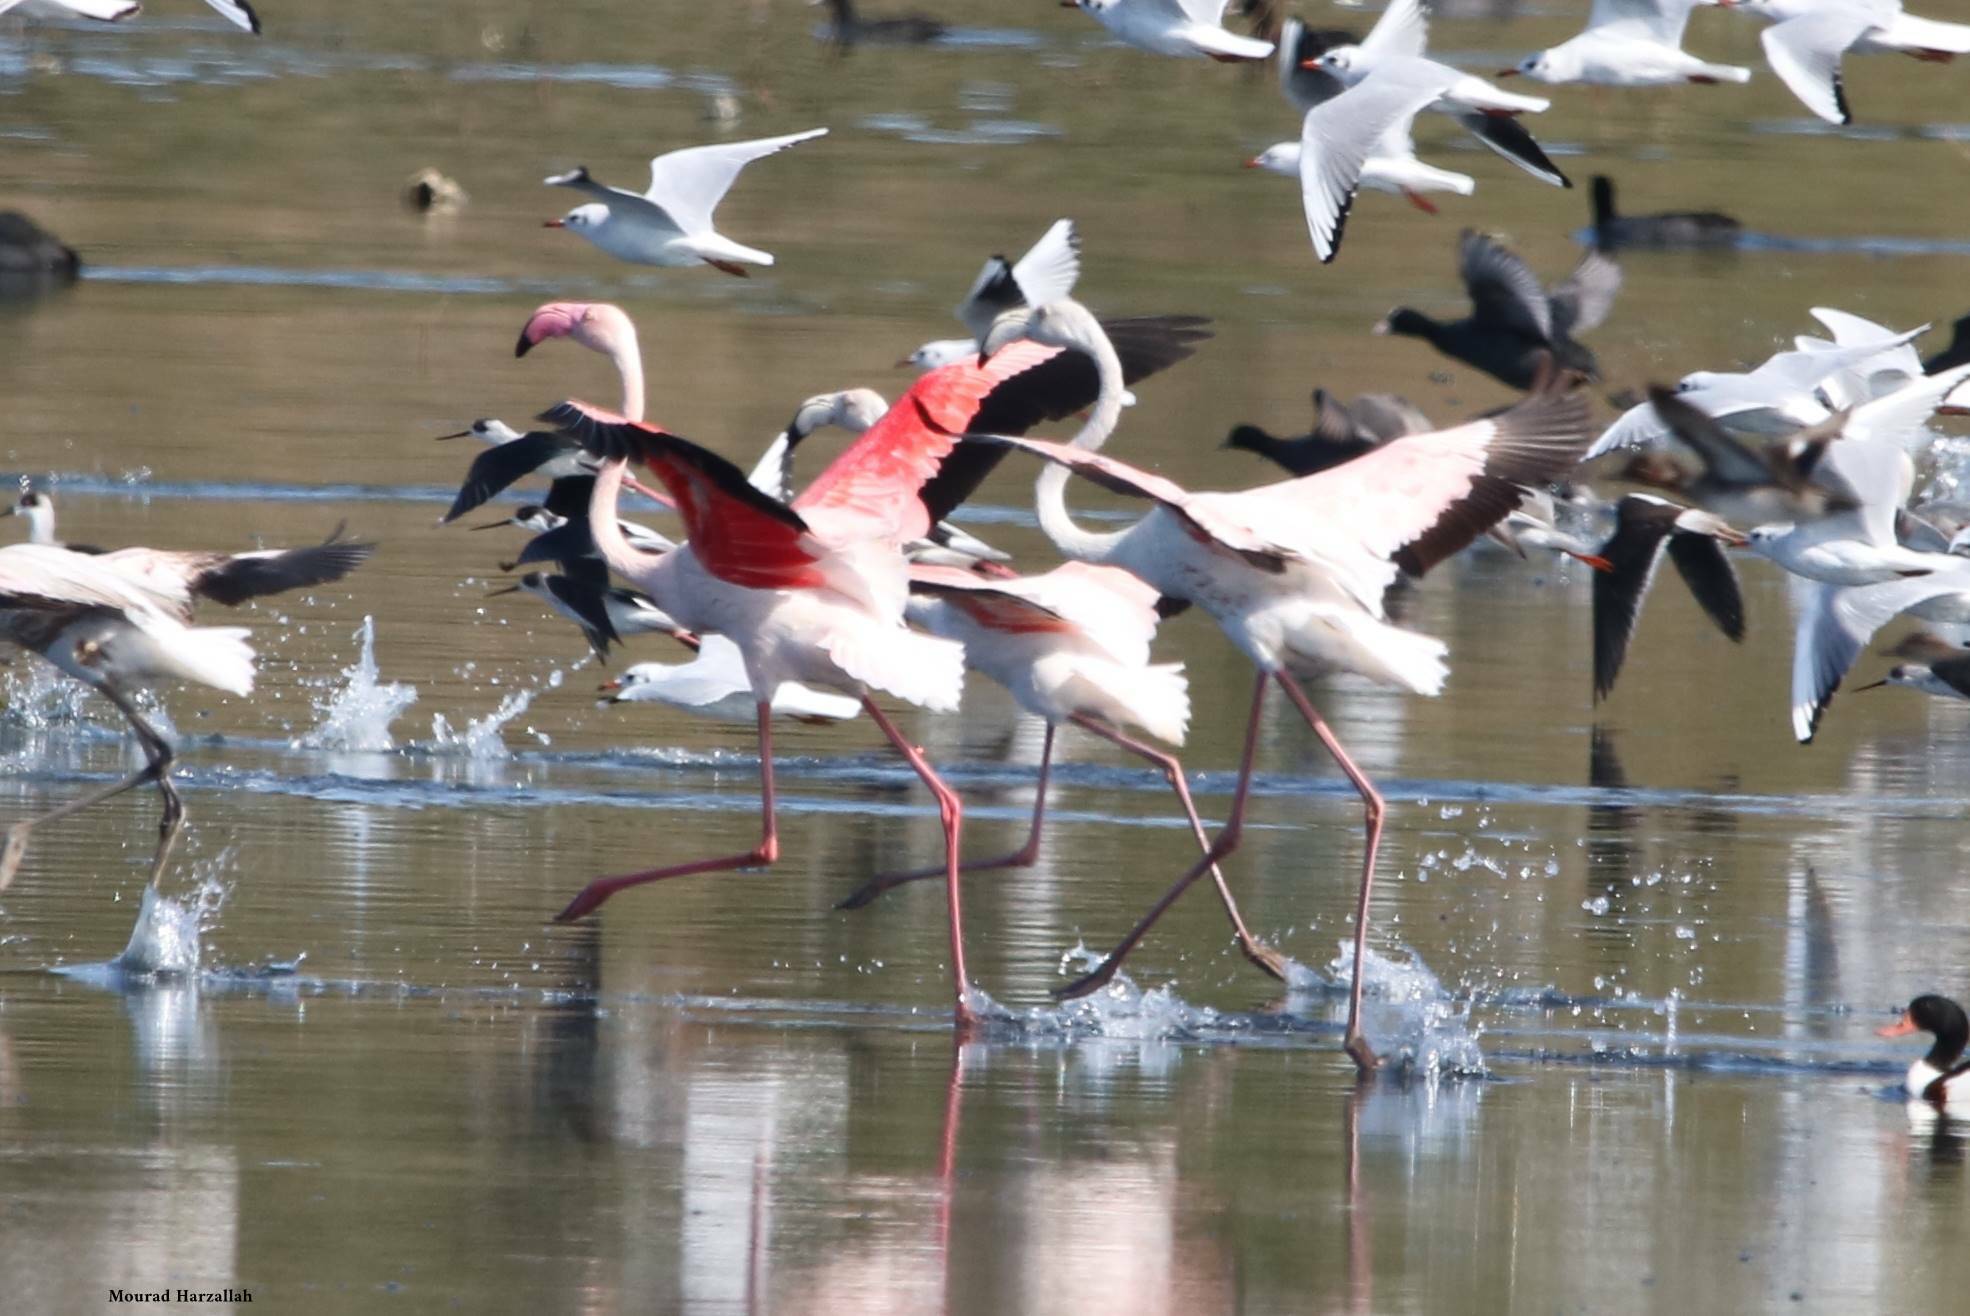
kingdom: Animalia
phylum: Chordata
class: Aves
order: Phoenicopteriformes
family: Phoenicopteridae
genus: Phoenicopterus
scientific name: Phoenicopterus roseus
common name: Greater flamingo
